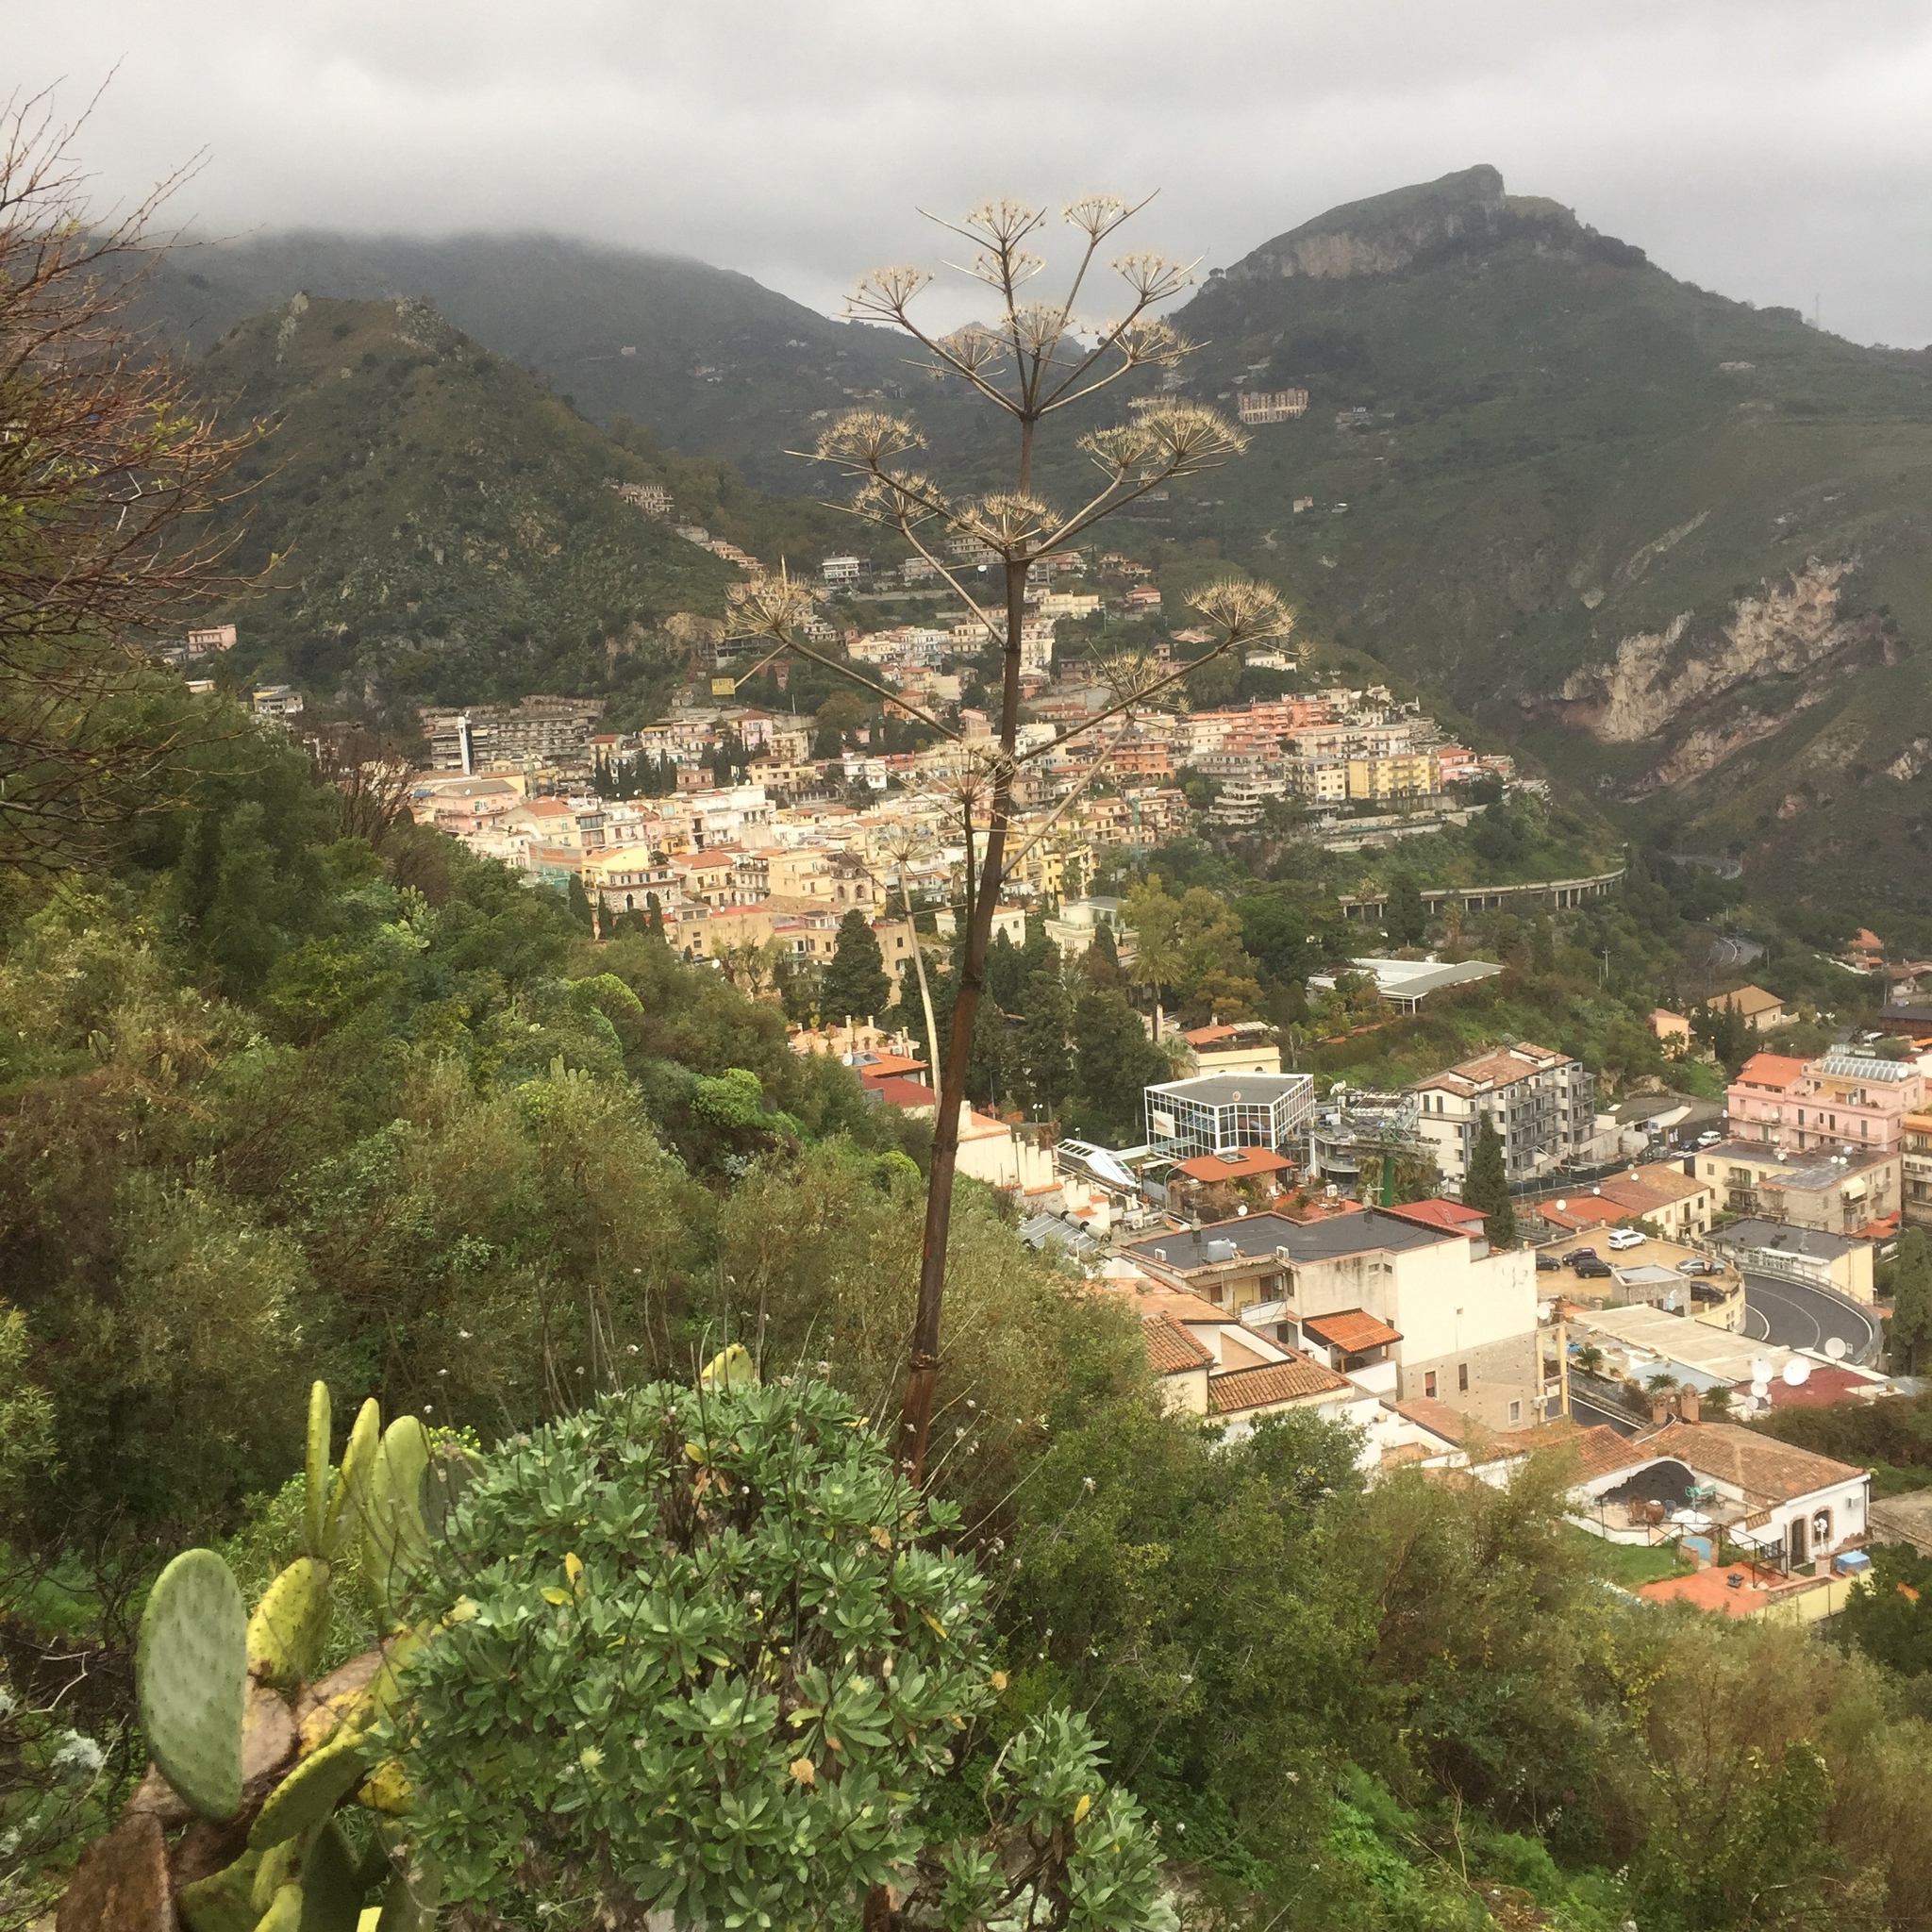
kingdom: Plantae
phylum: Tracheophyta
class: Magnoliopsida
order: Apiales
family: Apiaceae
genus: Ferula
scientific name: Ferula communis
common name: Giant fennel
